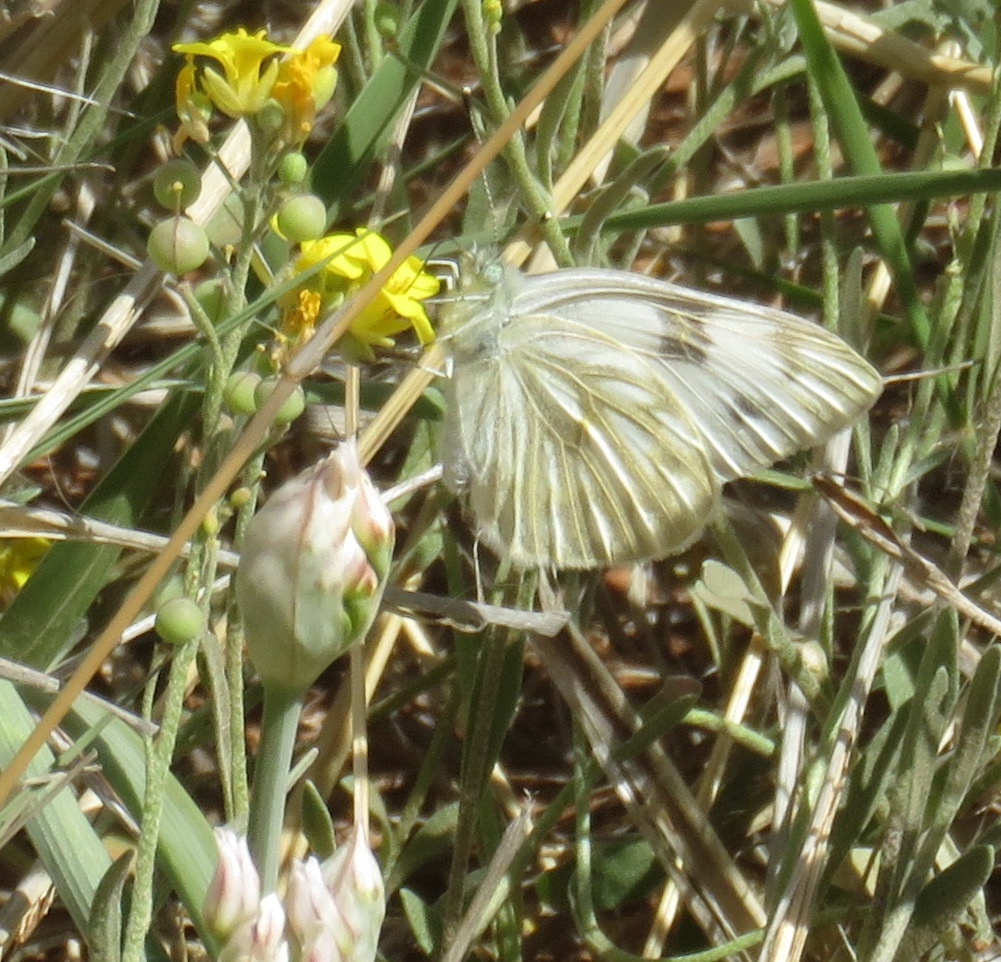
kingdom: Animalia
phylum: Arthropoda
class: Insecta
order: Lepidoptera
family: Pieridae
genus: Pontia
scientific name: Pontia protodice
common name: Checkered white
